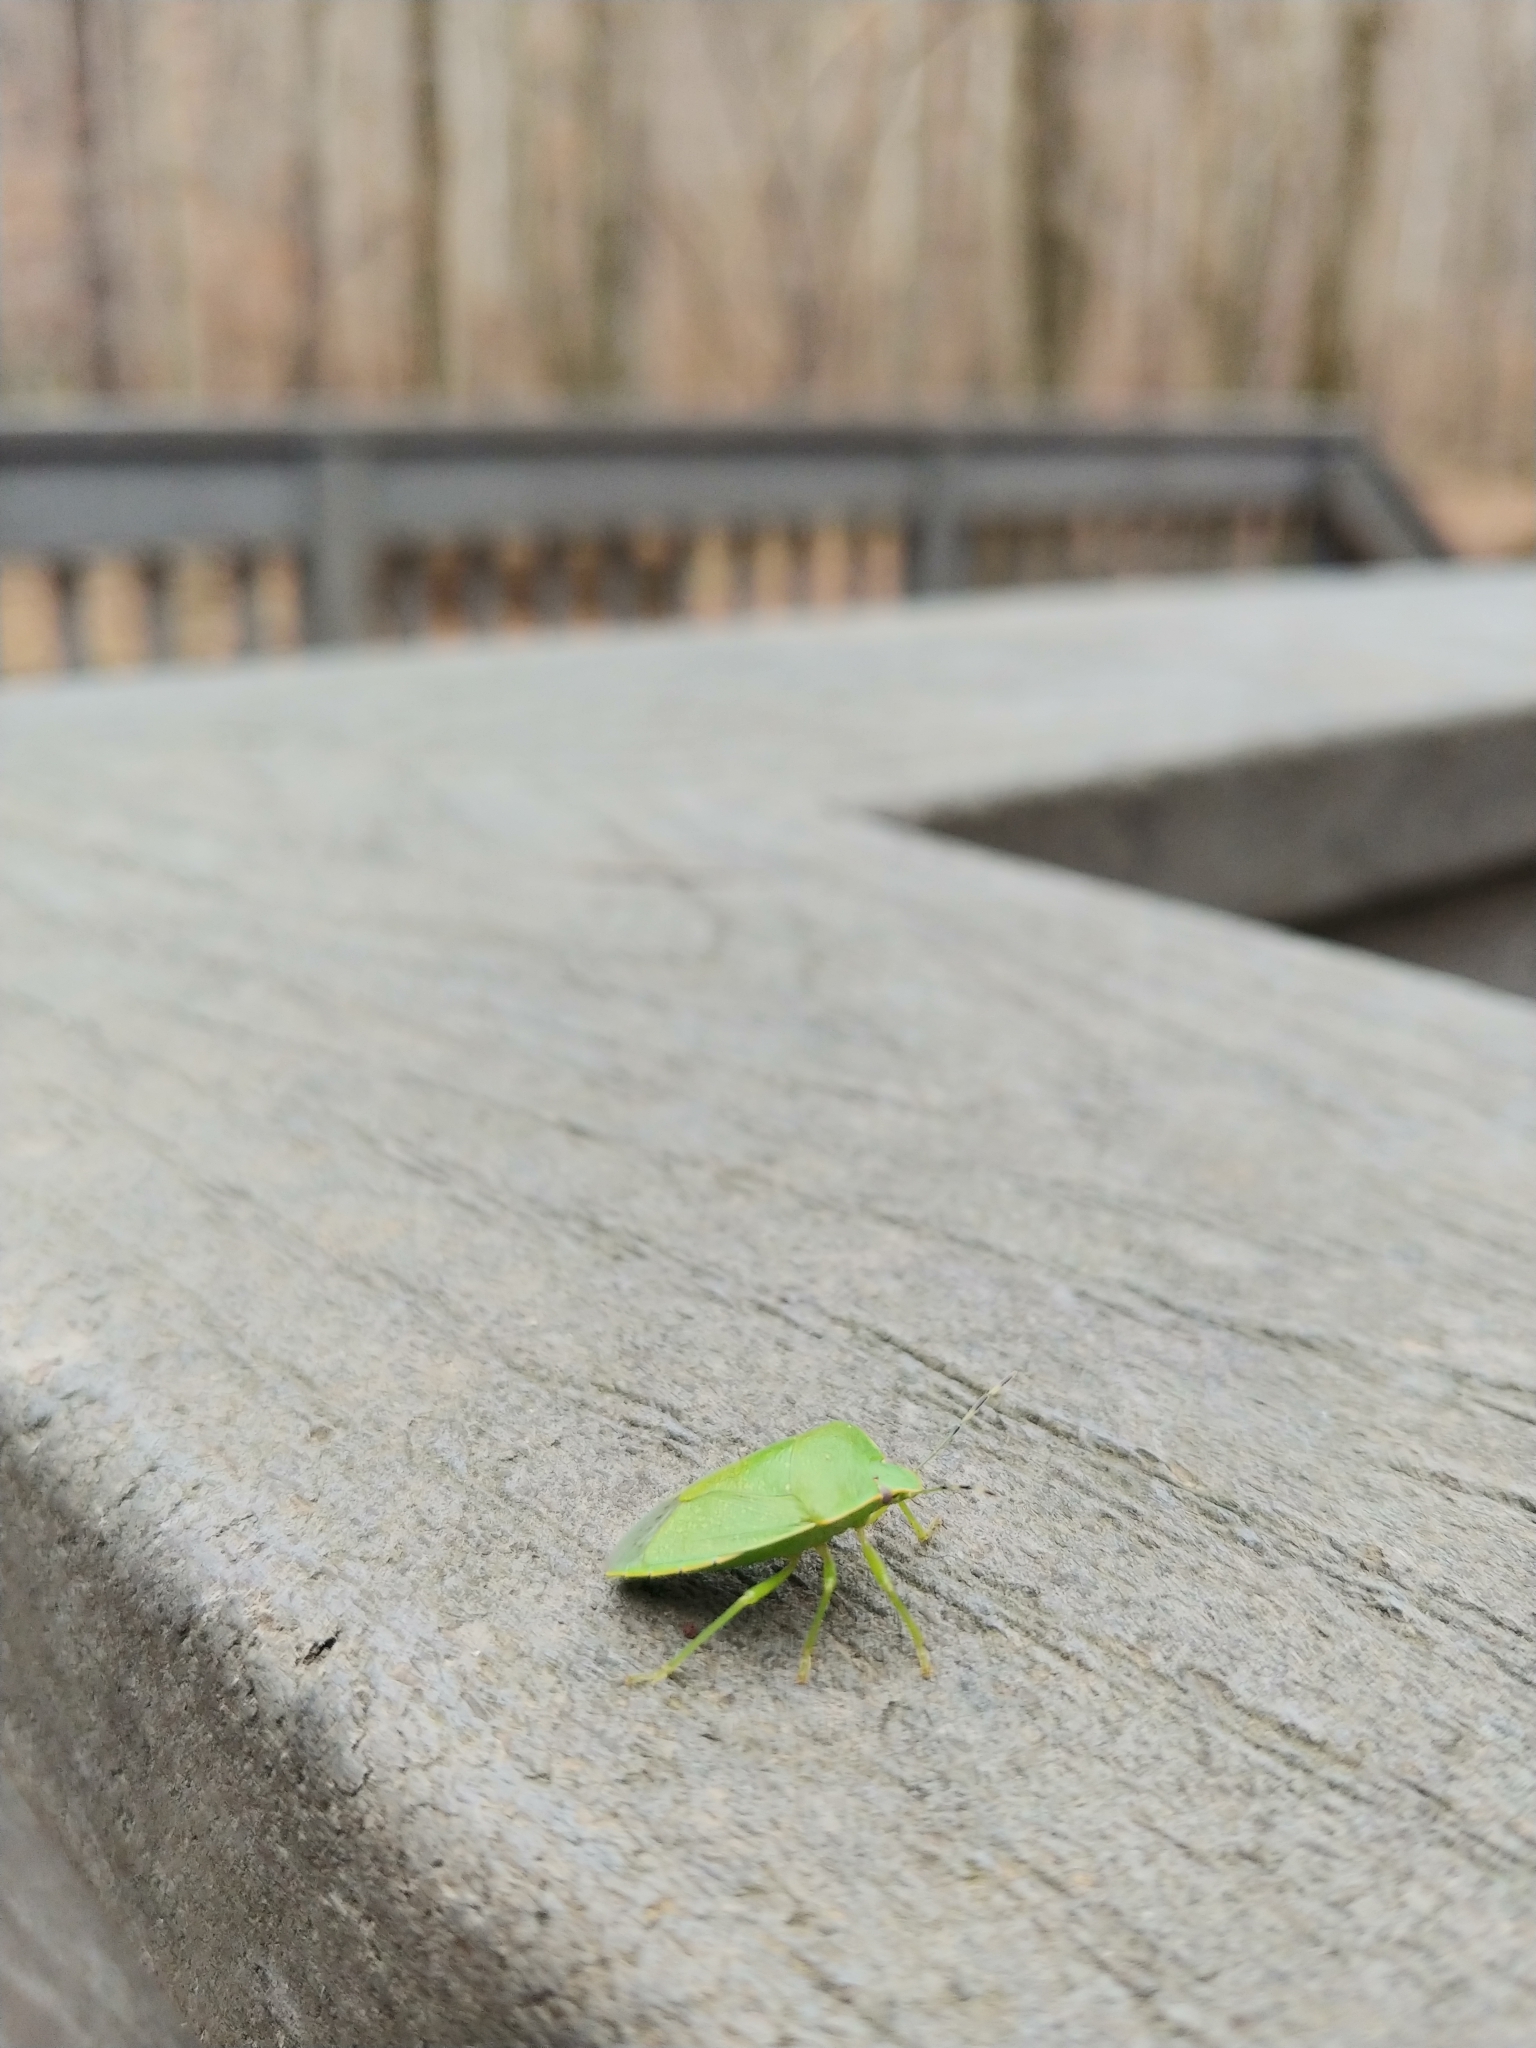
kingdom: Animalia
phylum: Arthropoda
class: Insecta
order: Hemiptera
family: Pentatomidae
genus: Chinavia
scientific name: Chinavia hilaris
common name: Green stink bug
